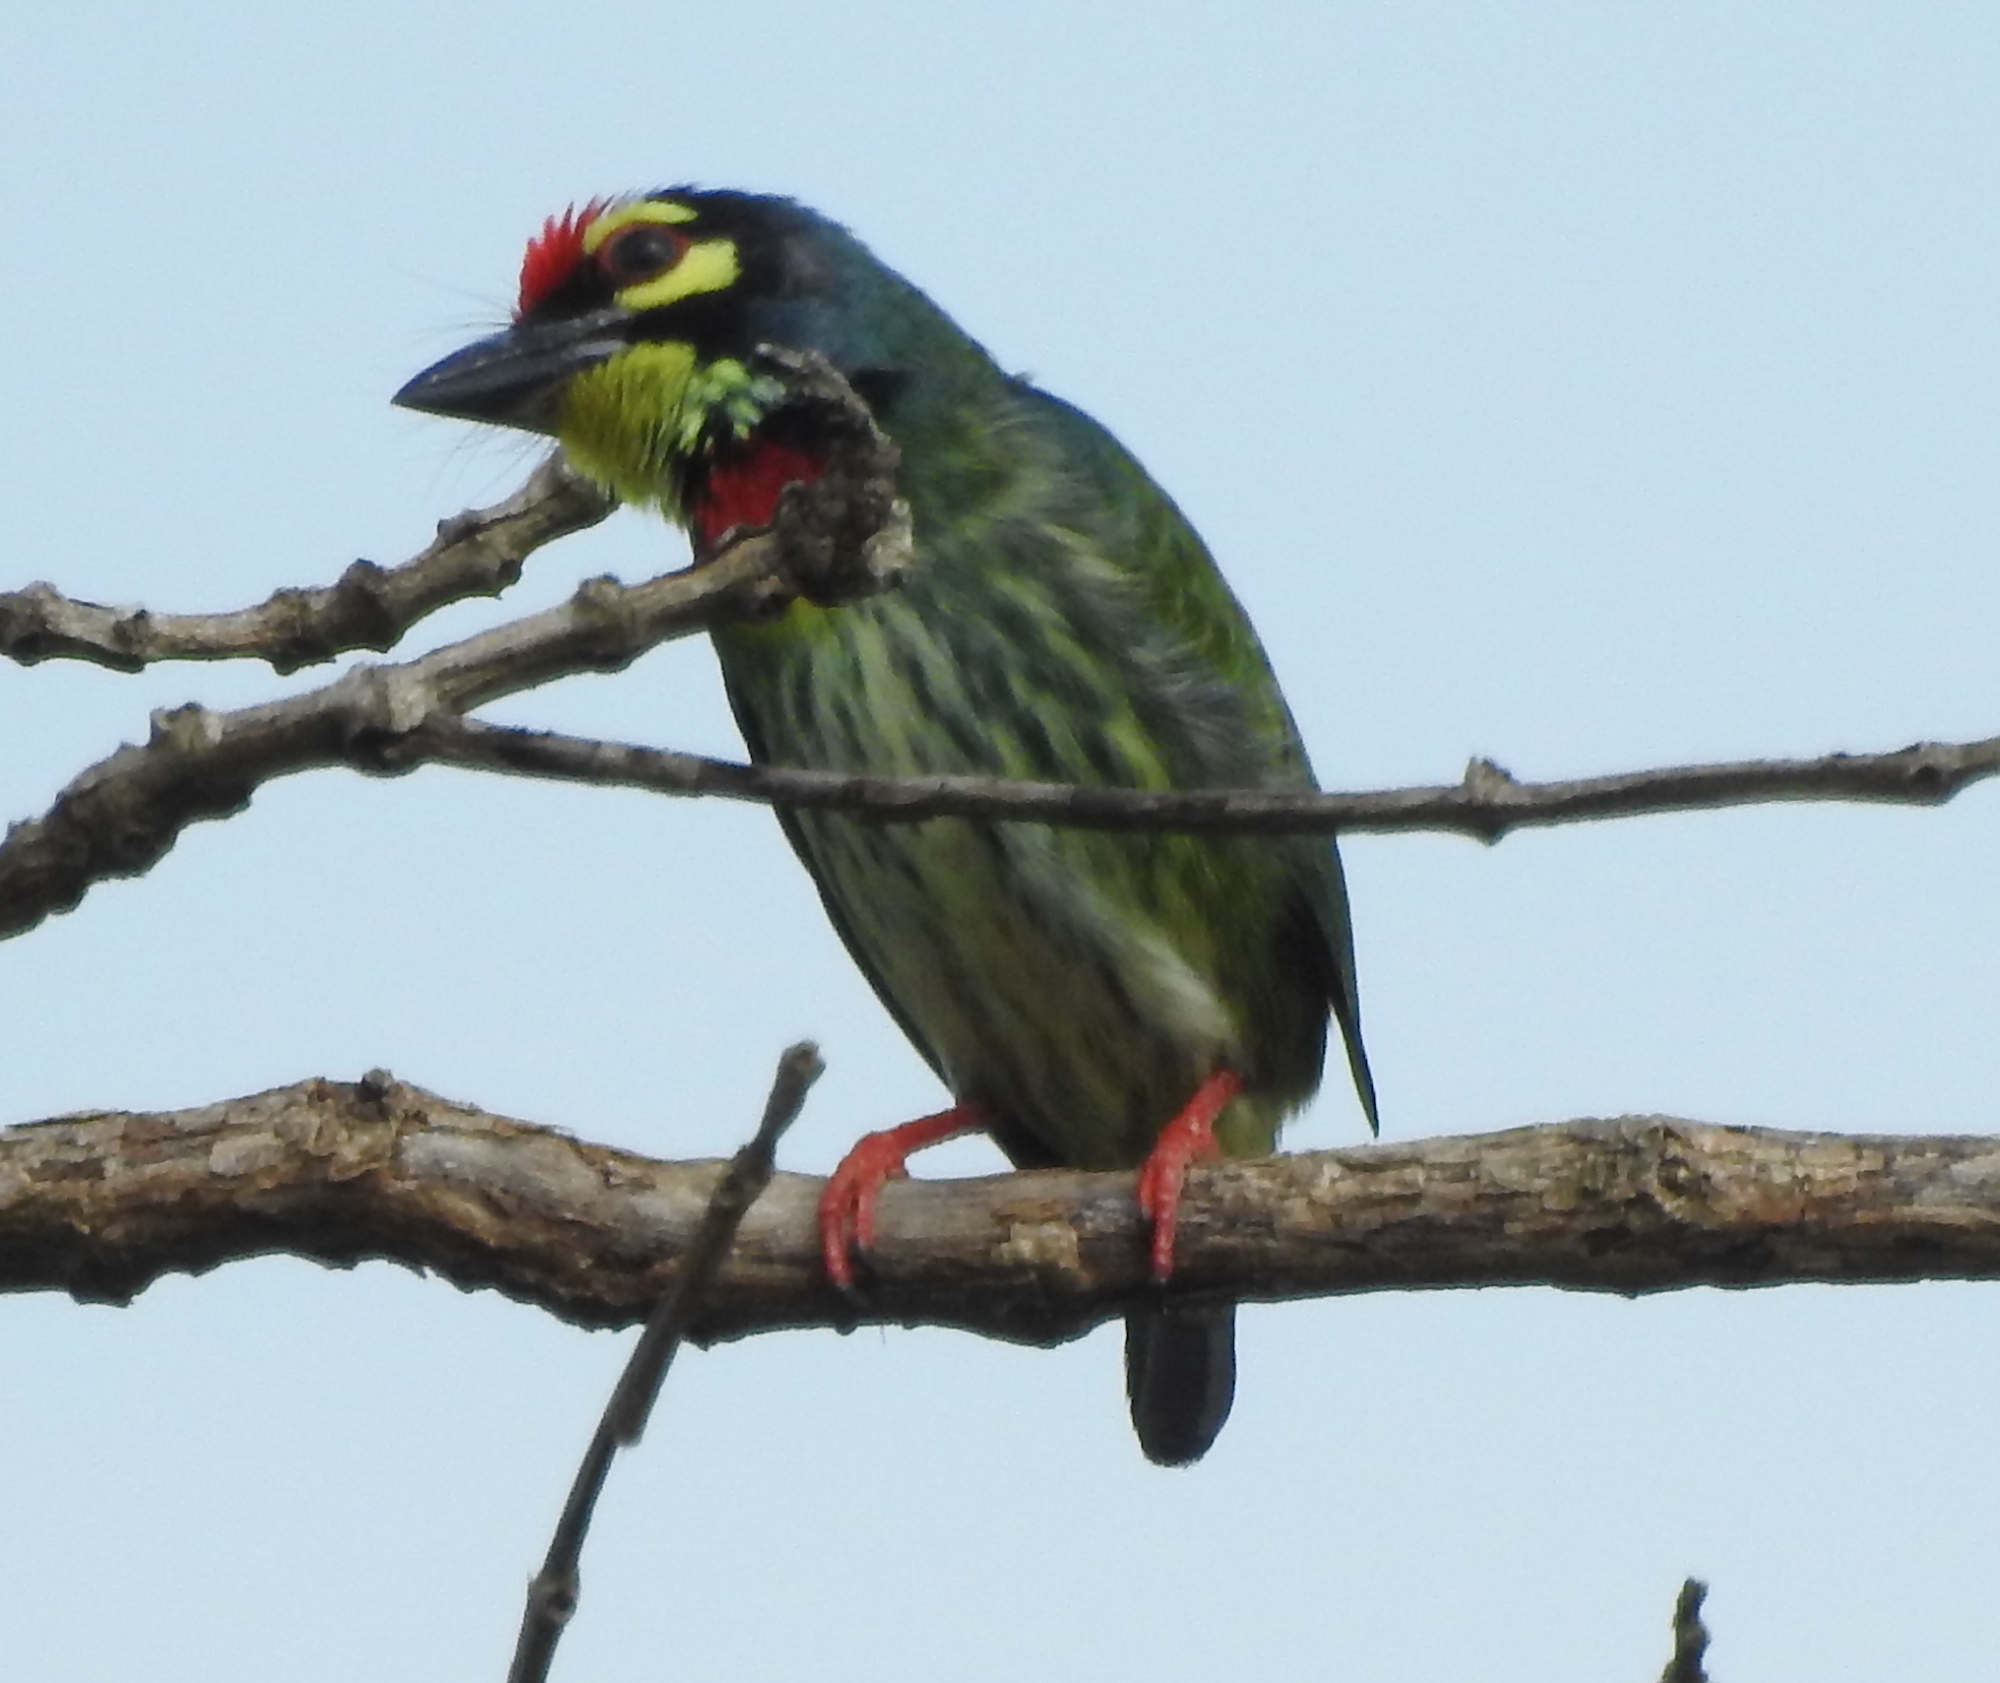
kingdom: Animalia
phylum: Chordata
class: Aves
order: Piciformes
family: Megalaimidae
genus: Psilopogon
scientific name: Psilopogon haemacephalus
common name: Coppersmith barbet
